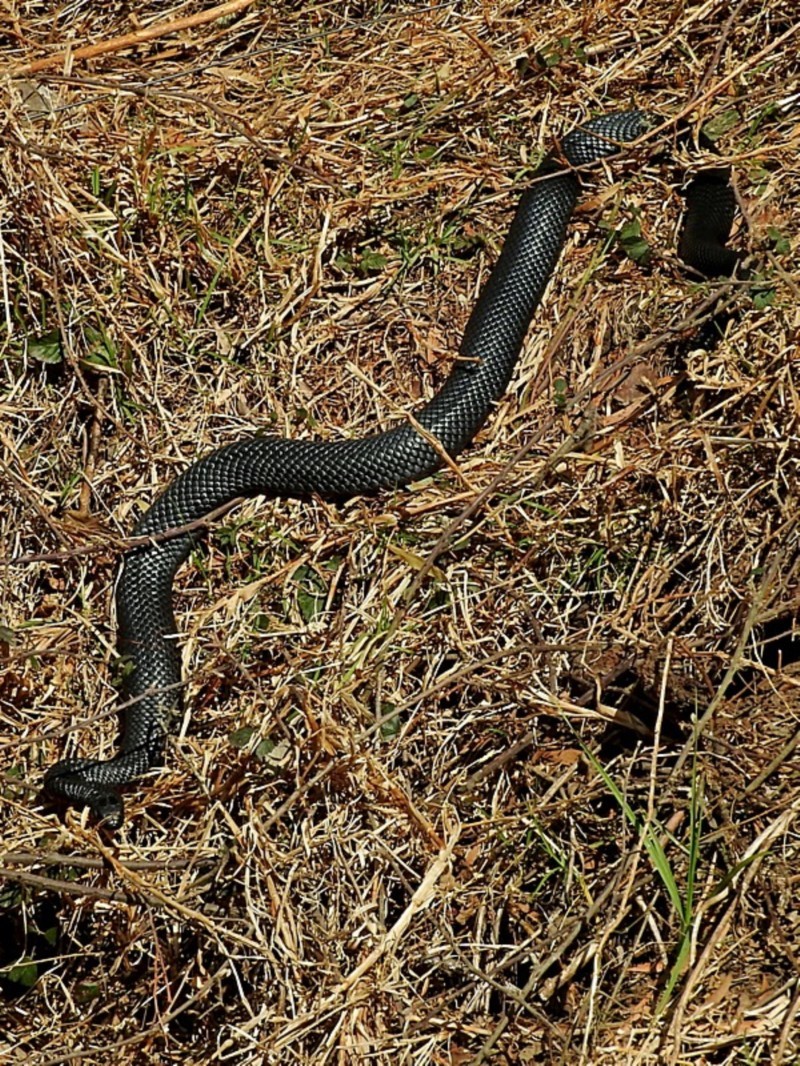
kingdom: Animalia
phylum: Chordata
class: Squamata
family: Elapidae
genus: Pseudechis
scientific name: Pseudechis porphyriacus
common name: Australian black snake
